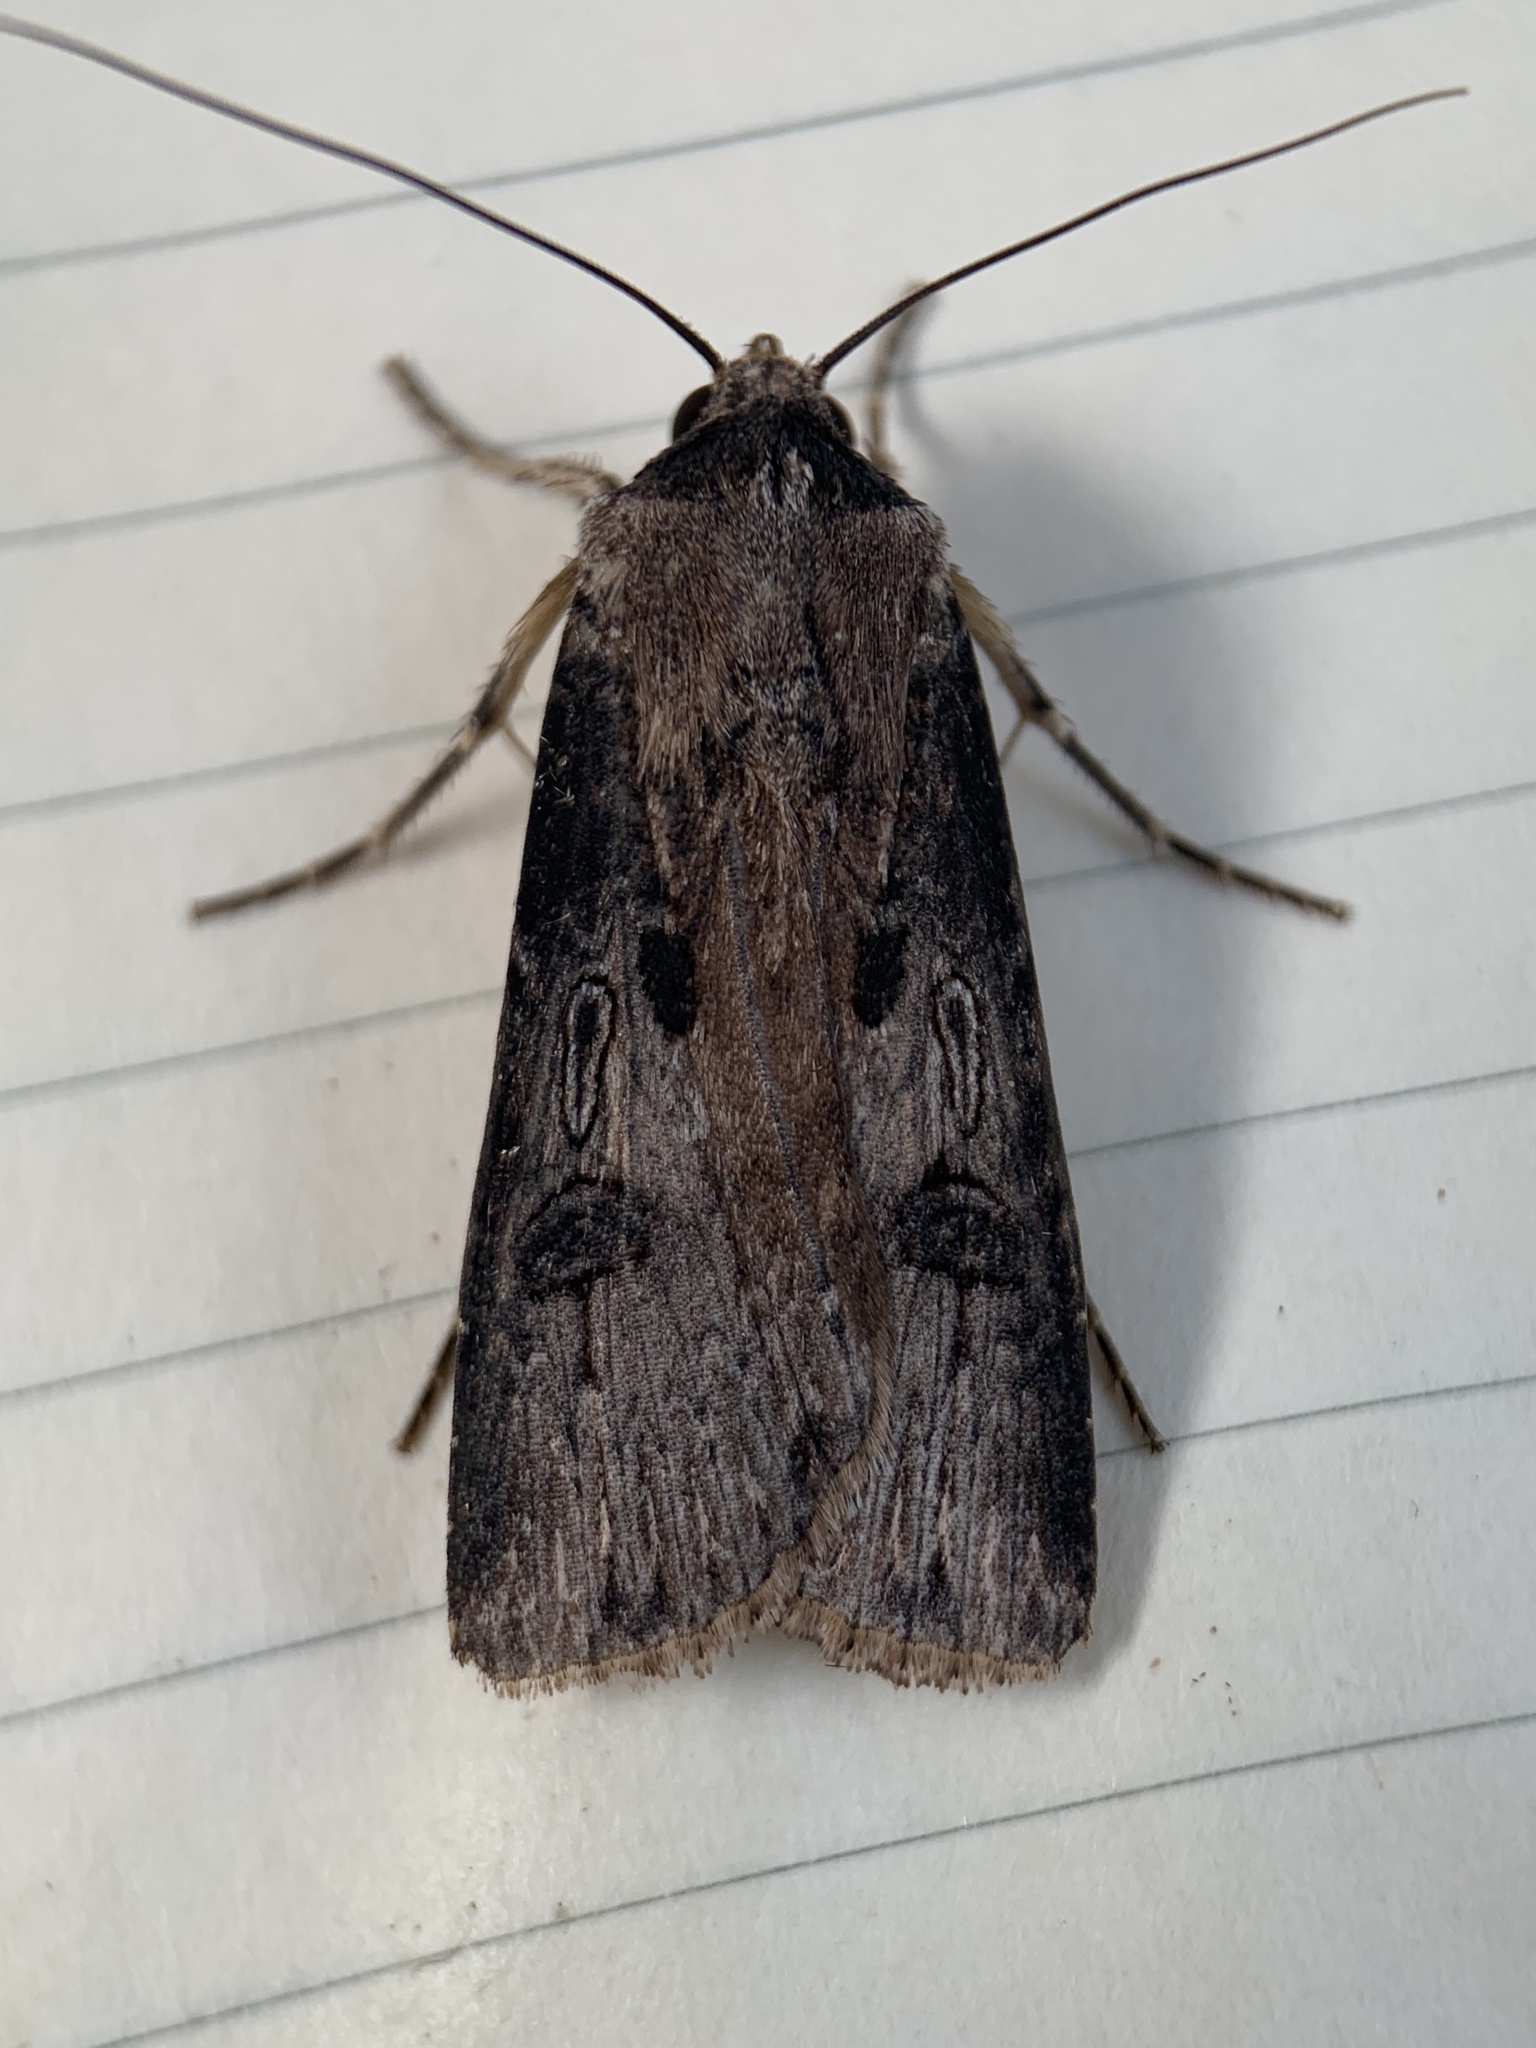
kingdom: Animalia
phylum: Arthropoda
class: Insecta
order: Lepidoptera
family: Noctuidae
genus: Agrotis
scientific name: Agrotis malefida
